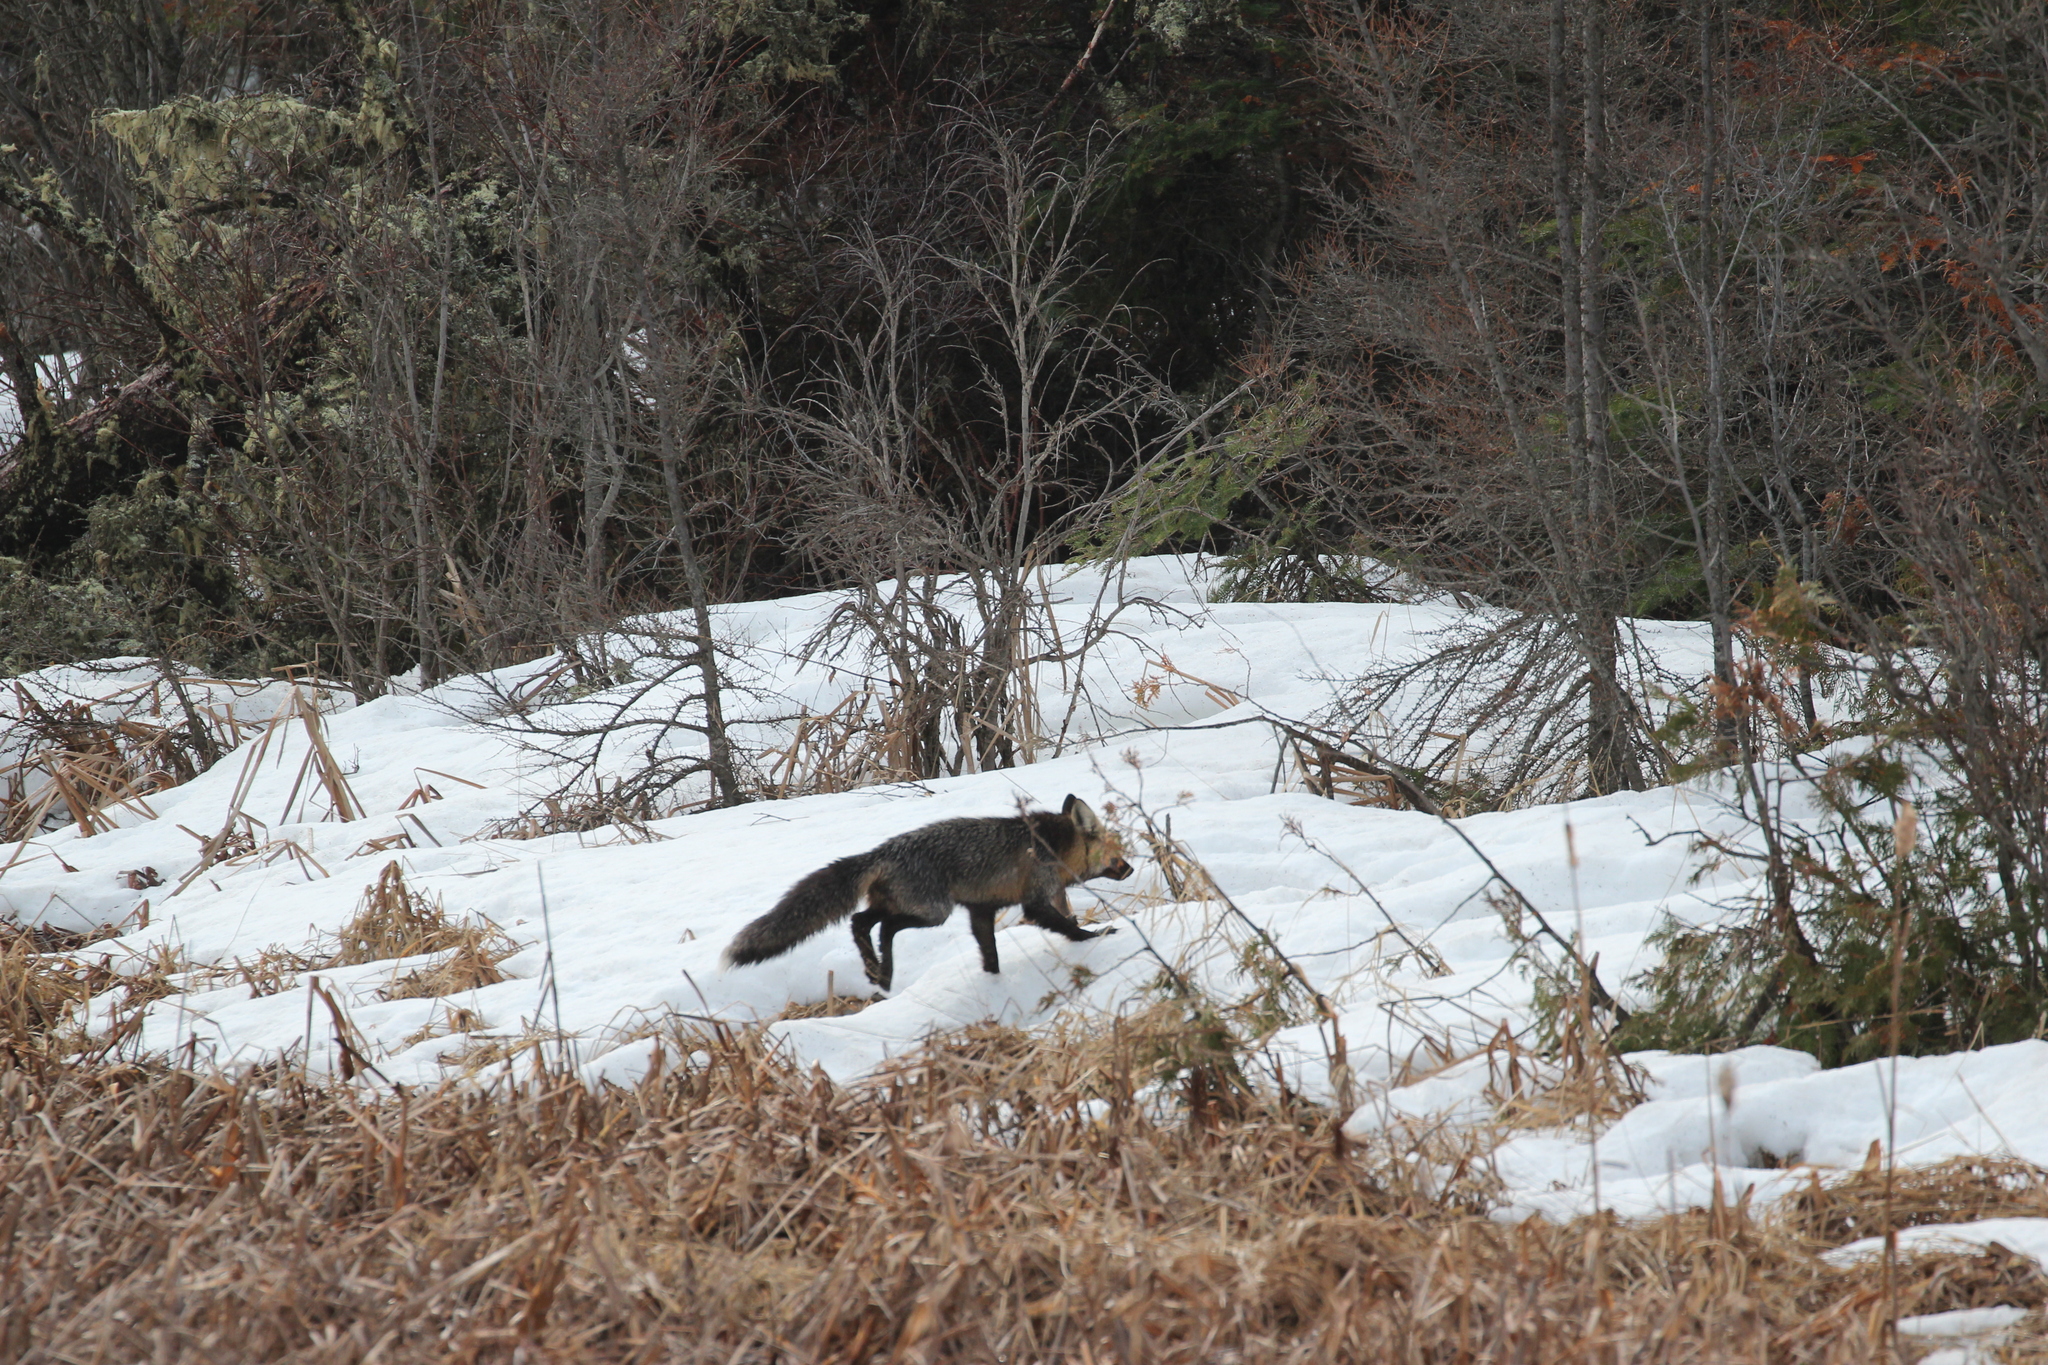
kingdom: Animalia
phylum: Chordata
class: Mammalia
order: Carnivora
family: Canidae
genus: Vulpes
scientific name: Vulpes vulpes
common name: Red fox
